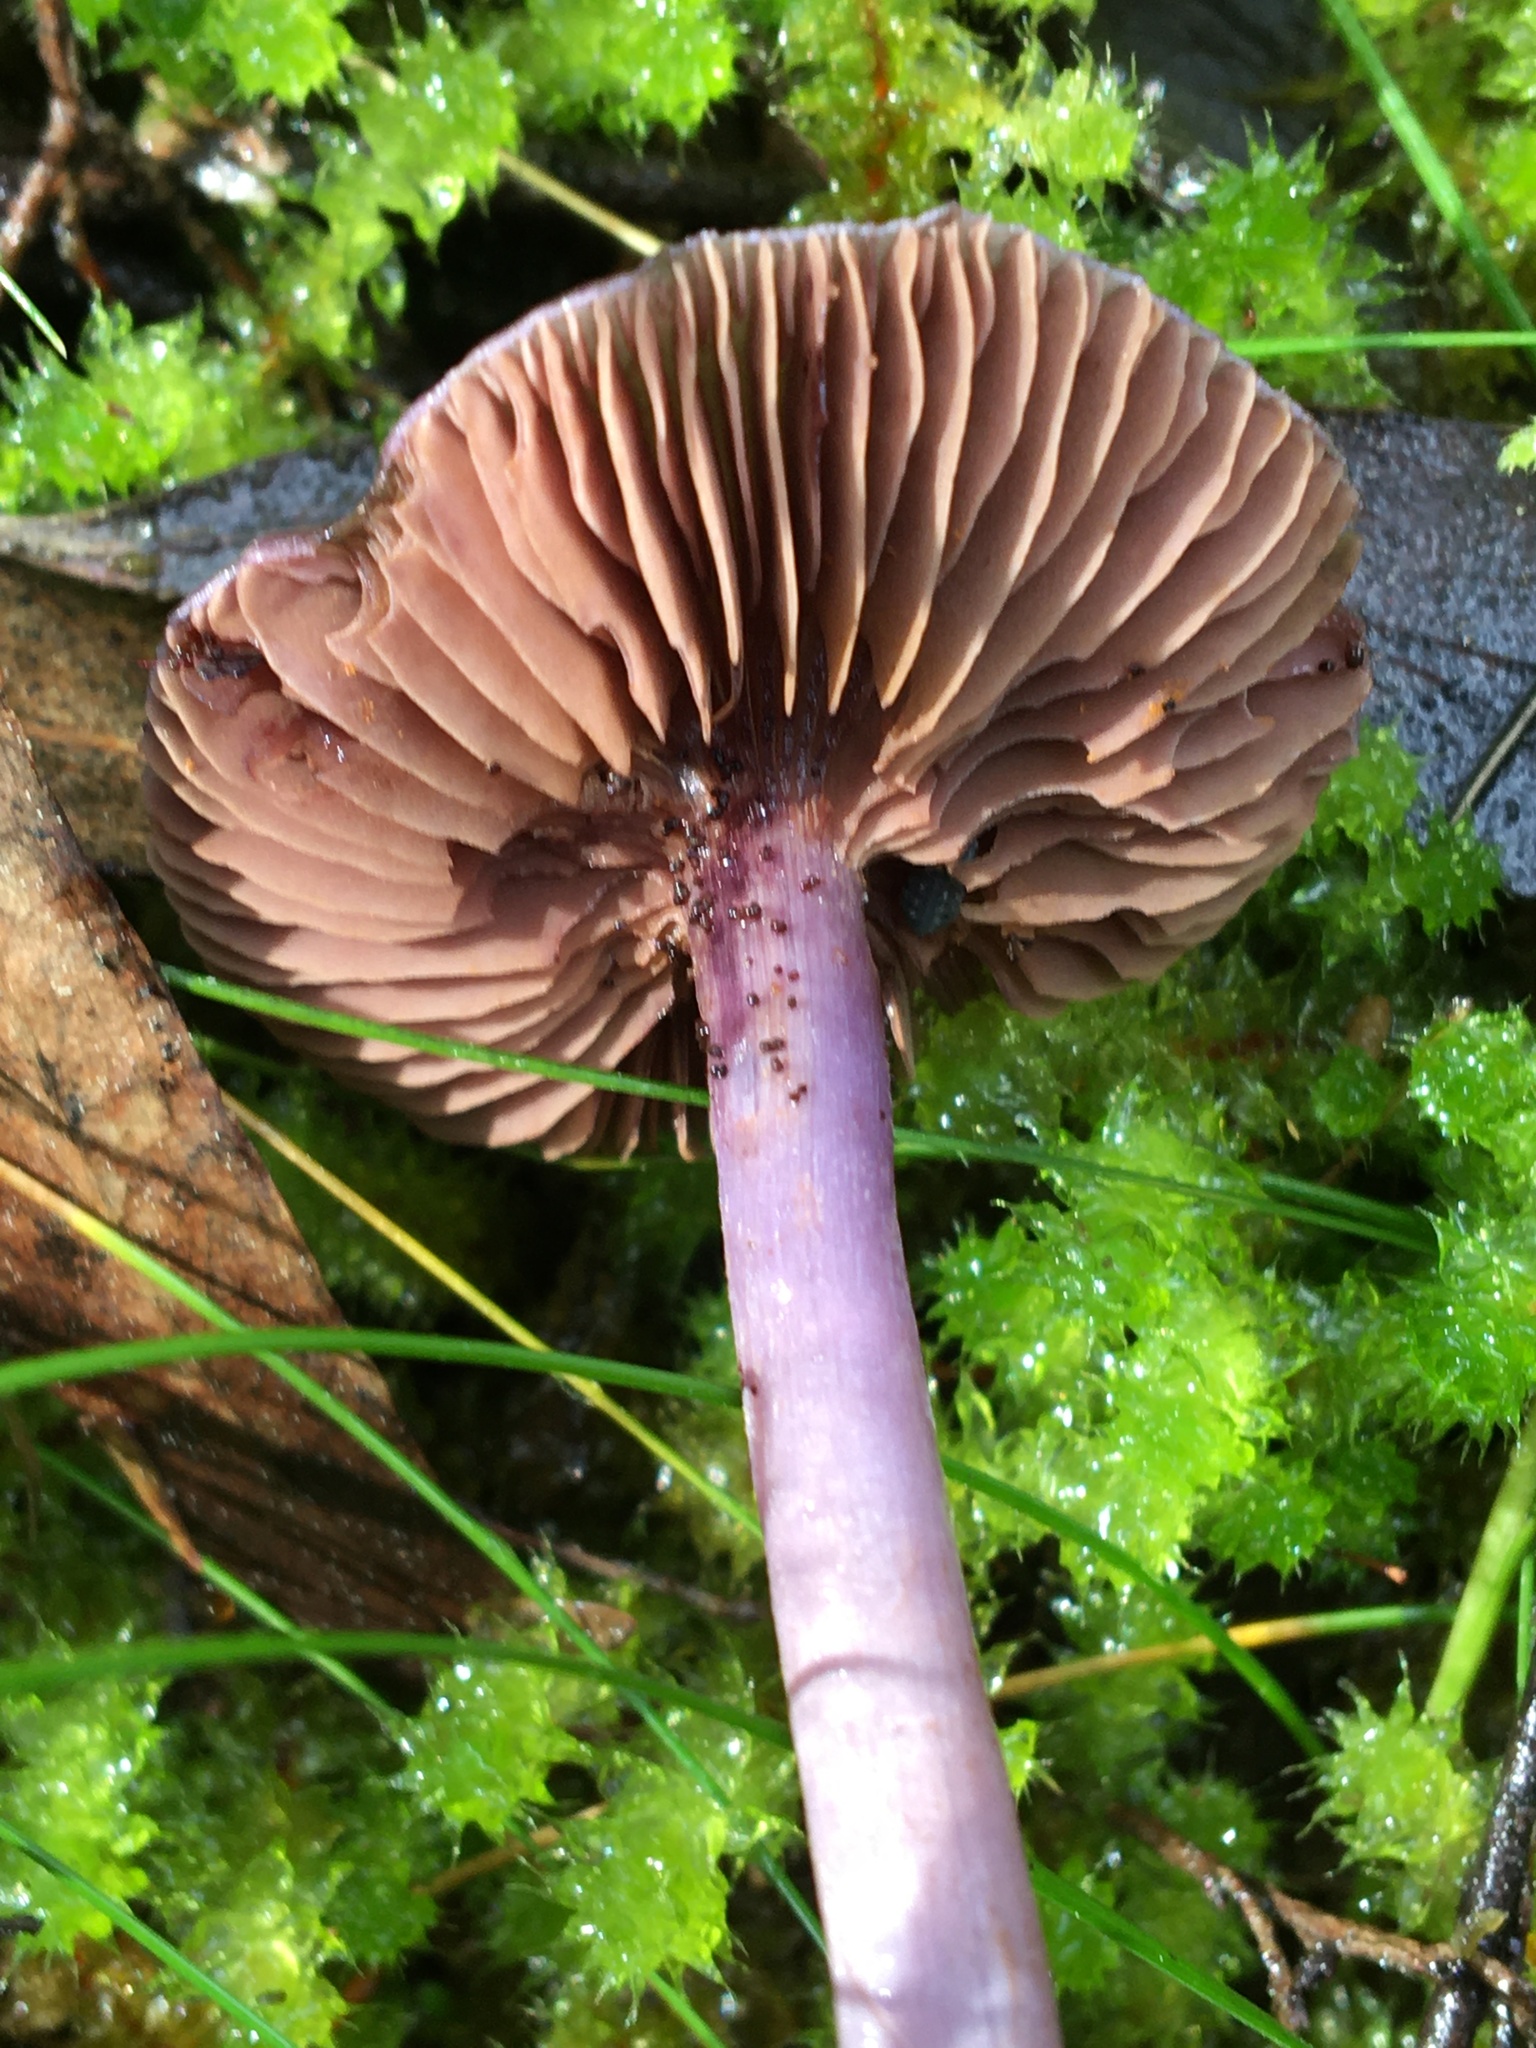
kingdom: Fungi
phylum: Basidiomycota
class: Agaricomycetes
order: Agaricales
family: Cortinariaceae
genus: Thaxterogaster
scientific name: Thaxterogaster submagellanicus
